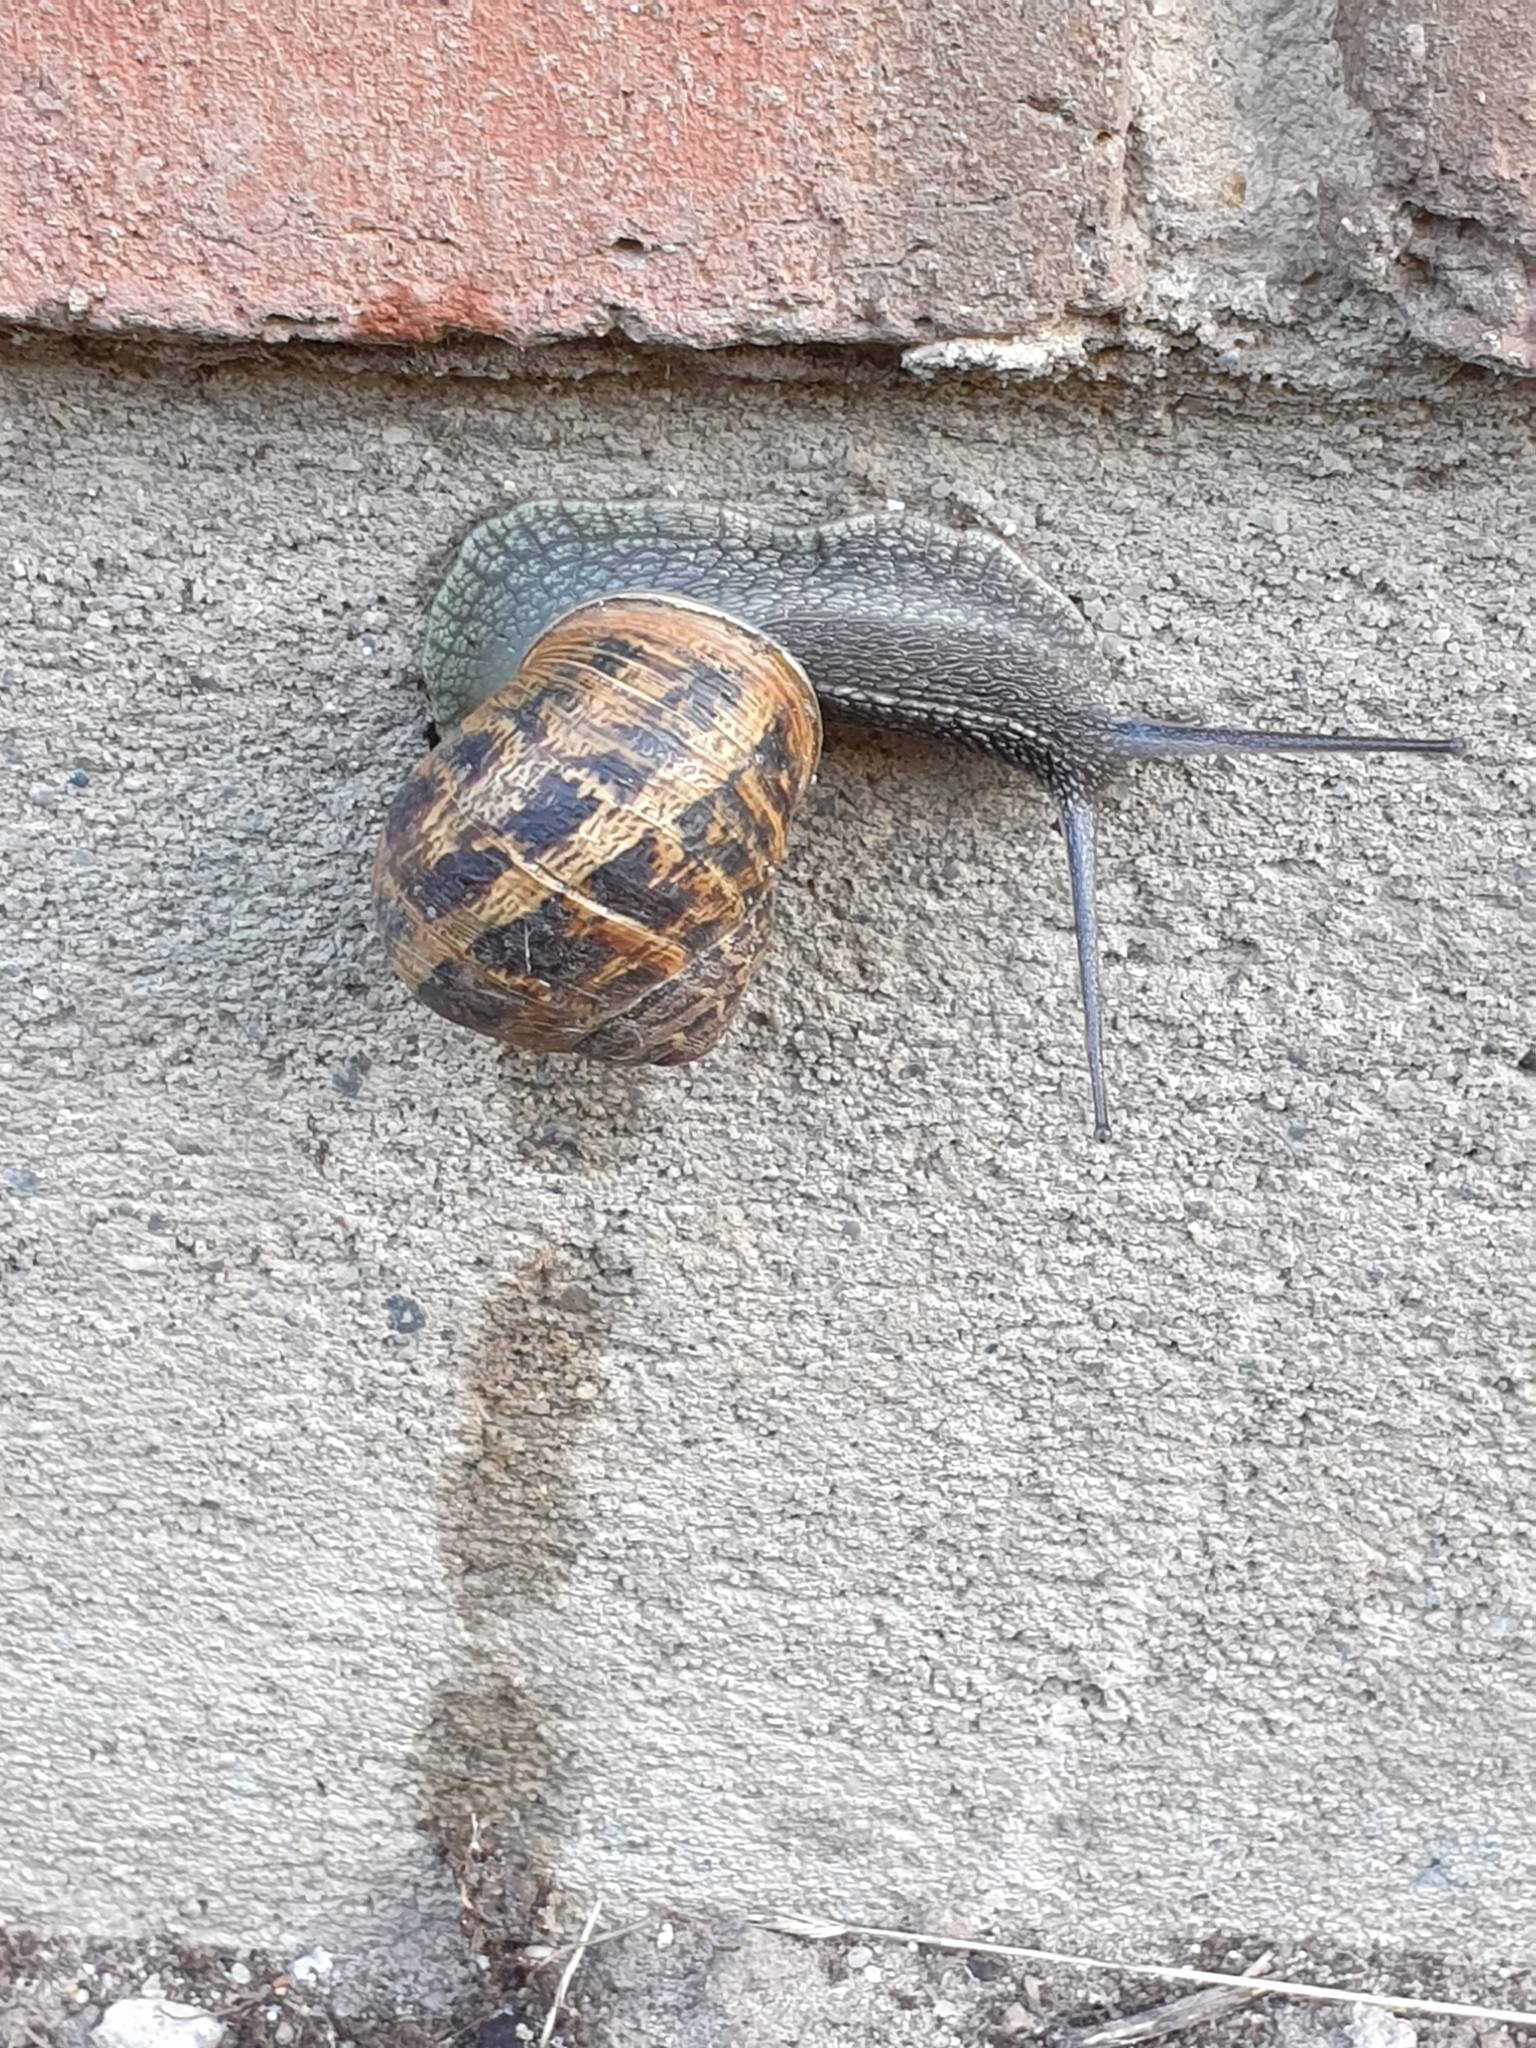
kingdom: Animalia
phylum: Mollusca
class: Gastropoda
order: Stylommatophora
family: Helicidae
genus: Cornu
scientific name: Cornu aspersum
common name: Brown garden snail
